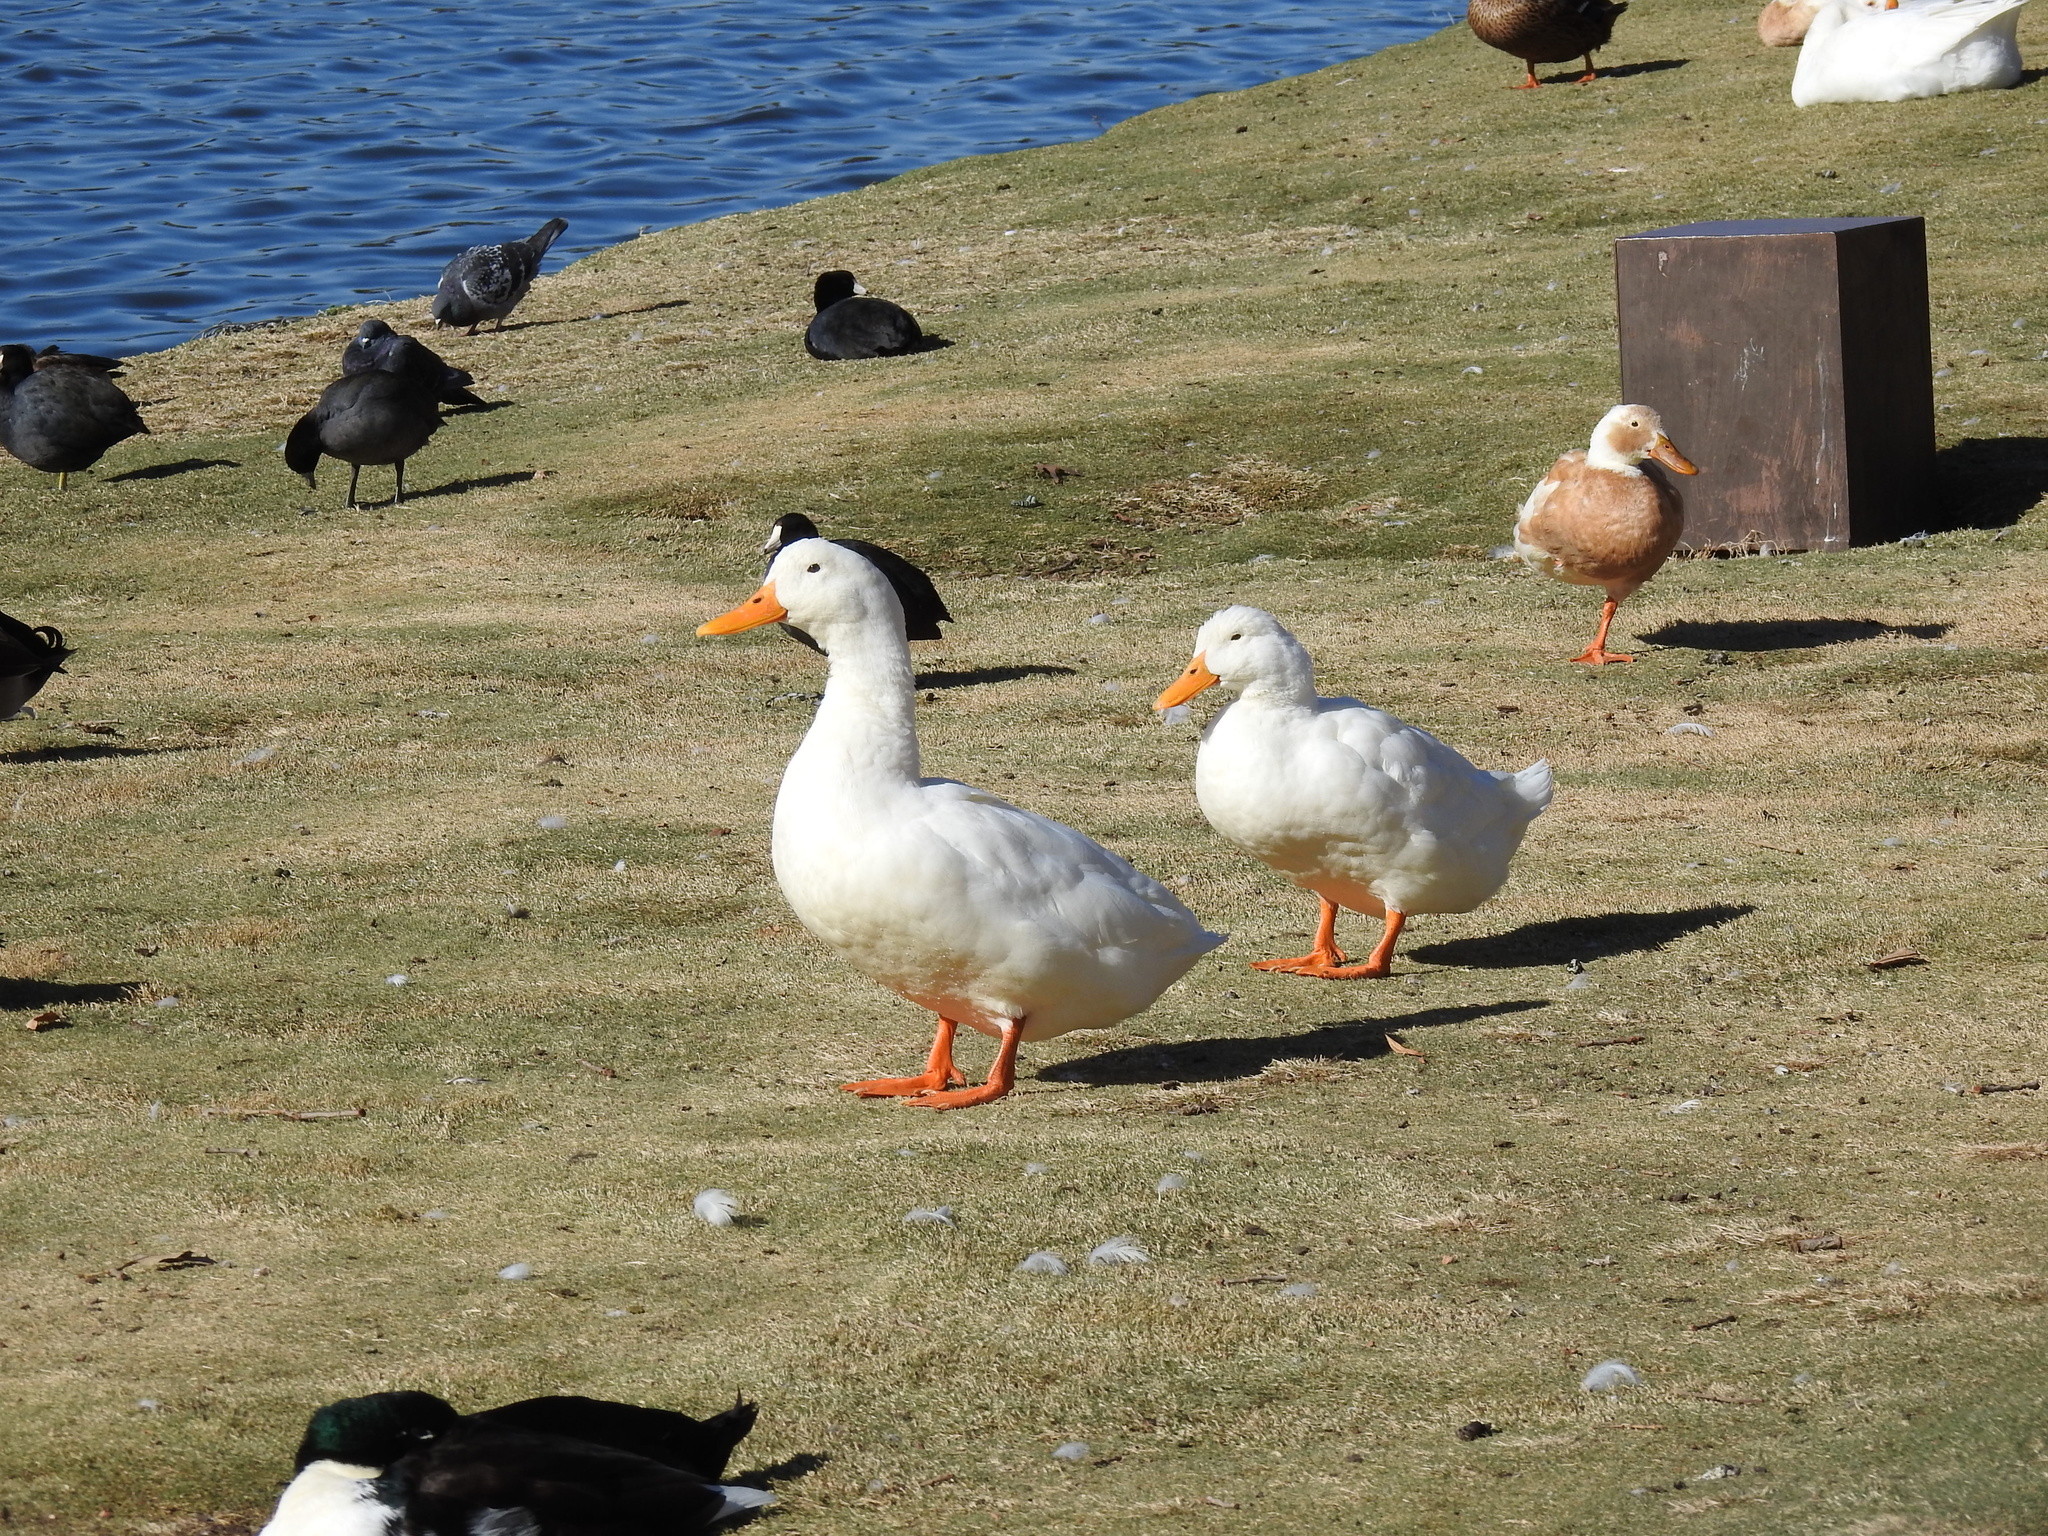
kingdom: Animalia
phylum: Chordata
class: Aves
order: Anseriformes
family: Anatidae
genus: Anas
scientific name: Anas platyrhynchos
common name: Mallard
